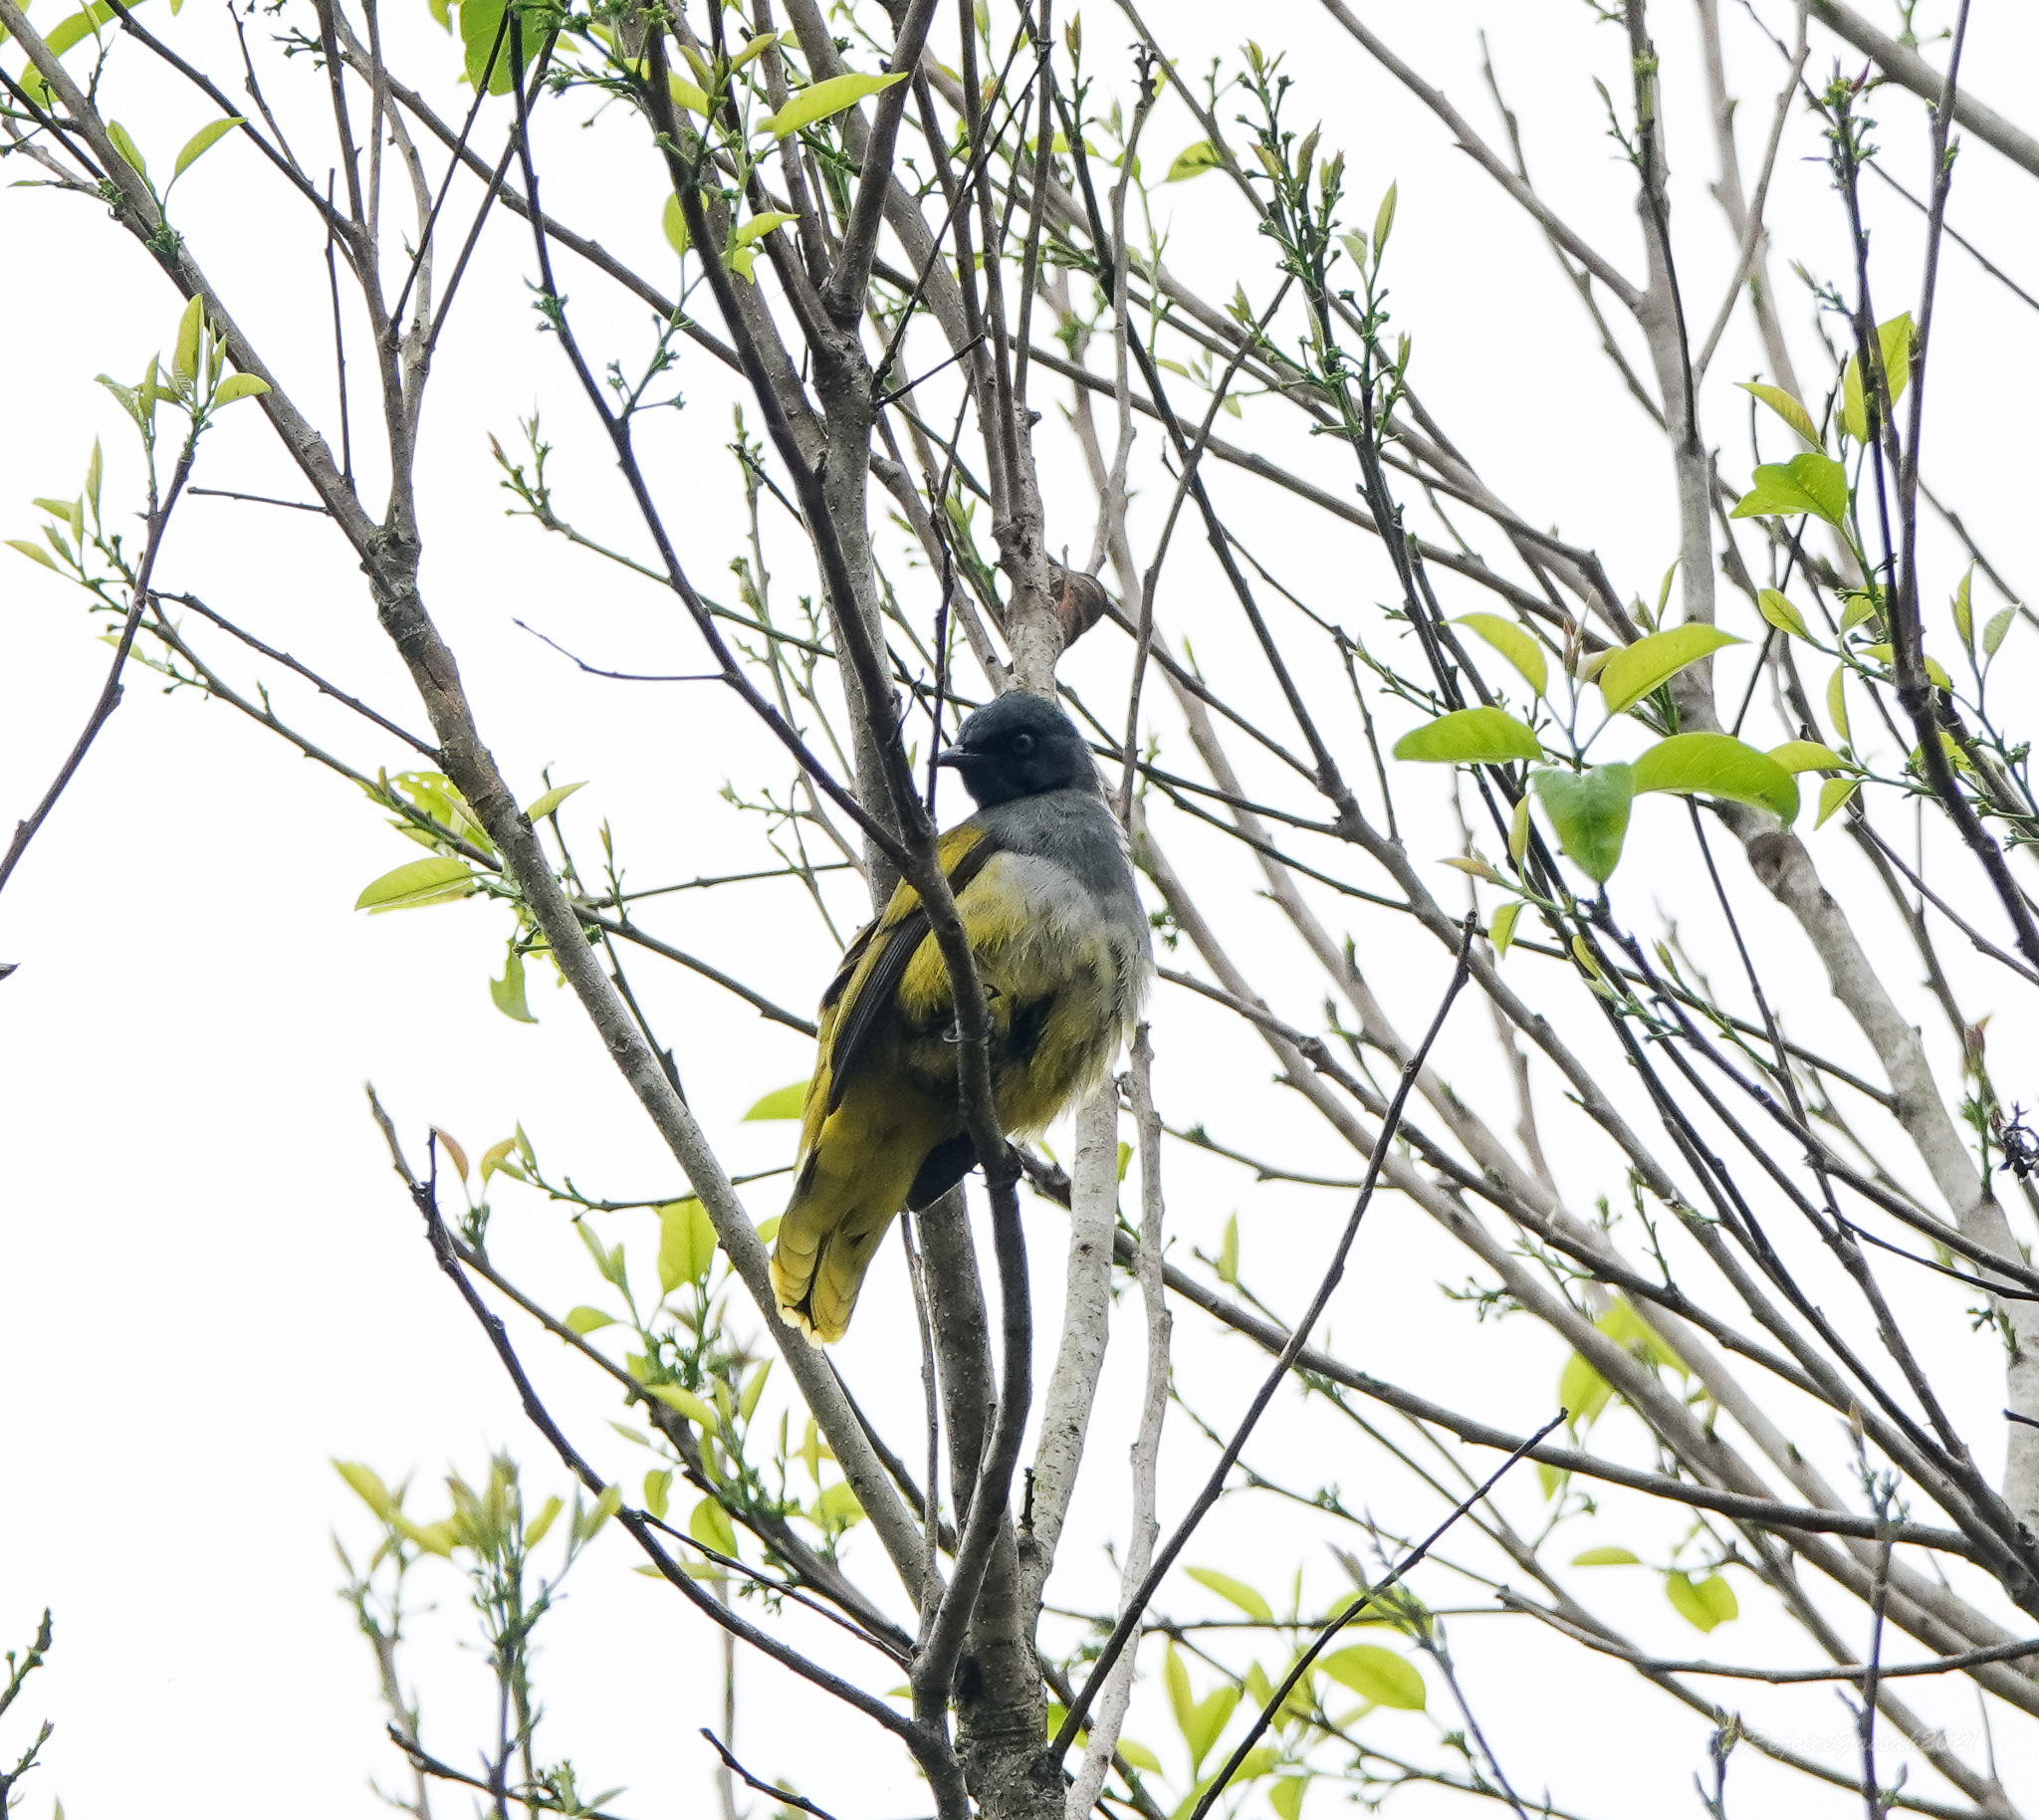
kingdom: Animalia
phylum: Chordata
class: Aves
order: Passeriformes
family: Pycnonotidae
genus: Microtarsus
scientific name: Microtarsus
